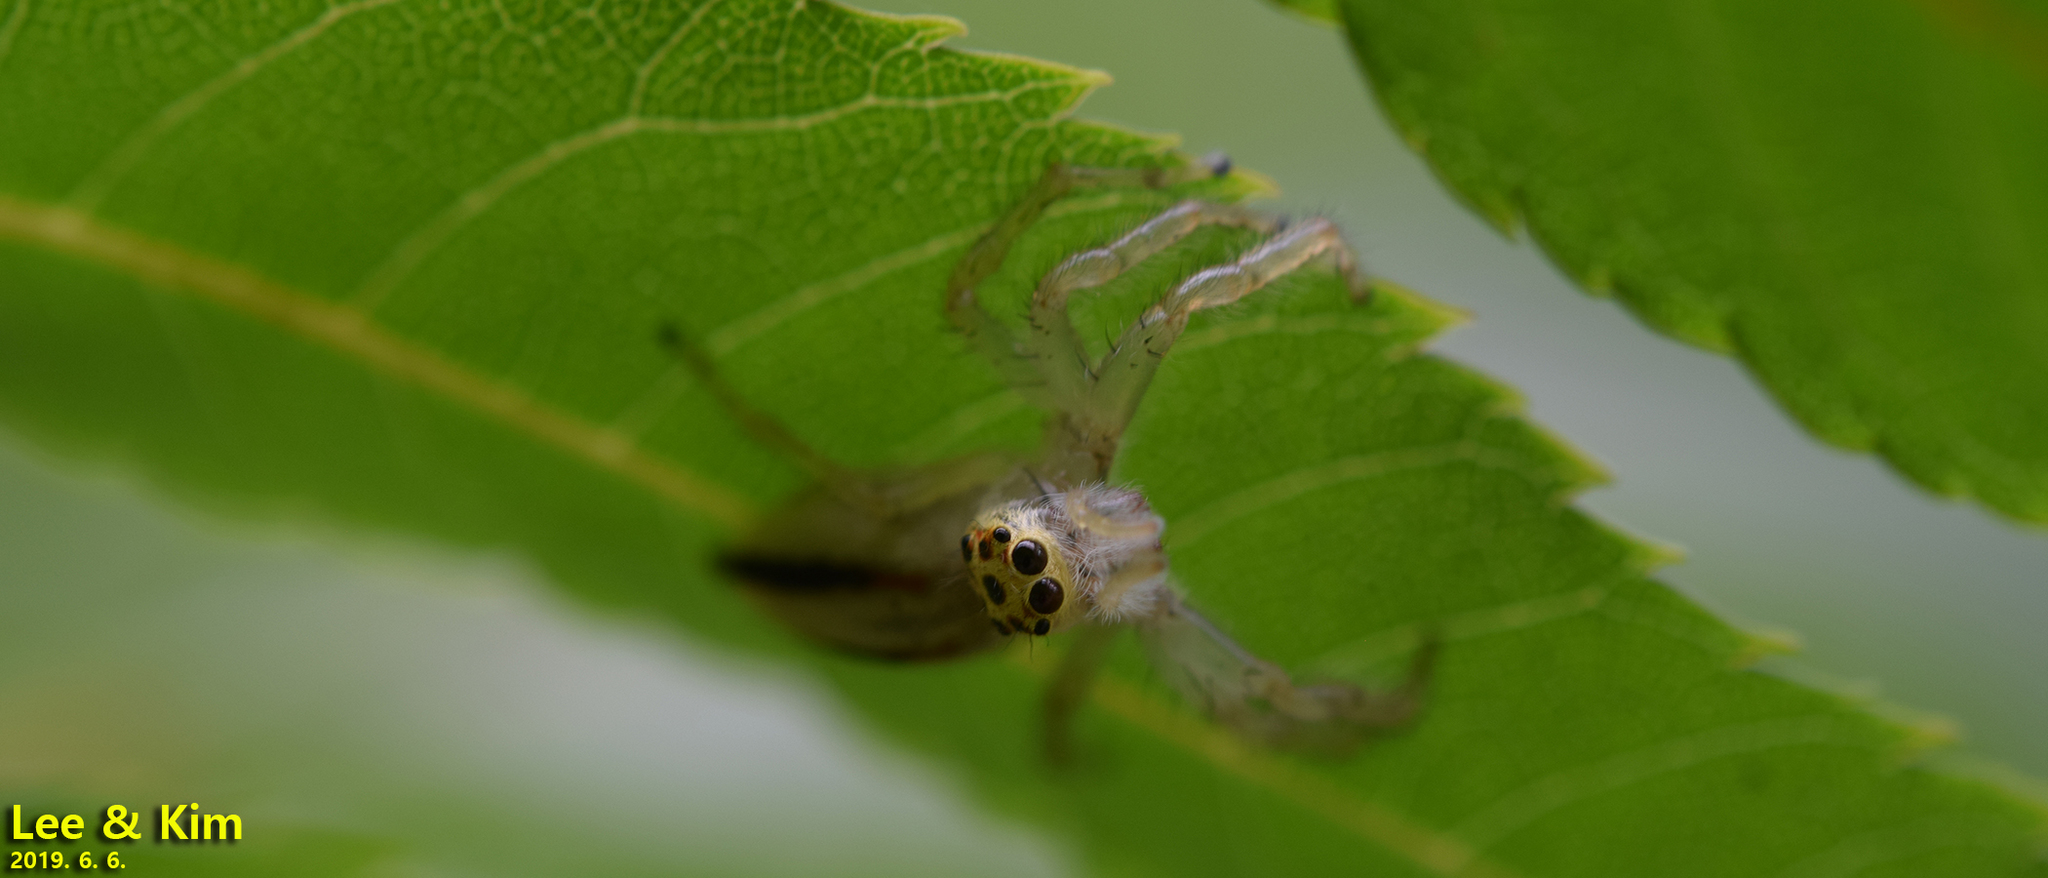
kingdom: Animalia
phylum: Arthropoda
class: Arachnida
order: Araneae
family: Salticidae
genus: Telamonia
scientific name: Telamonia vlijmi
